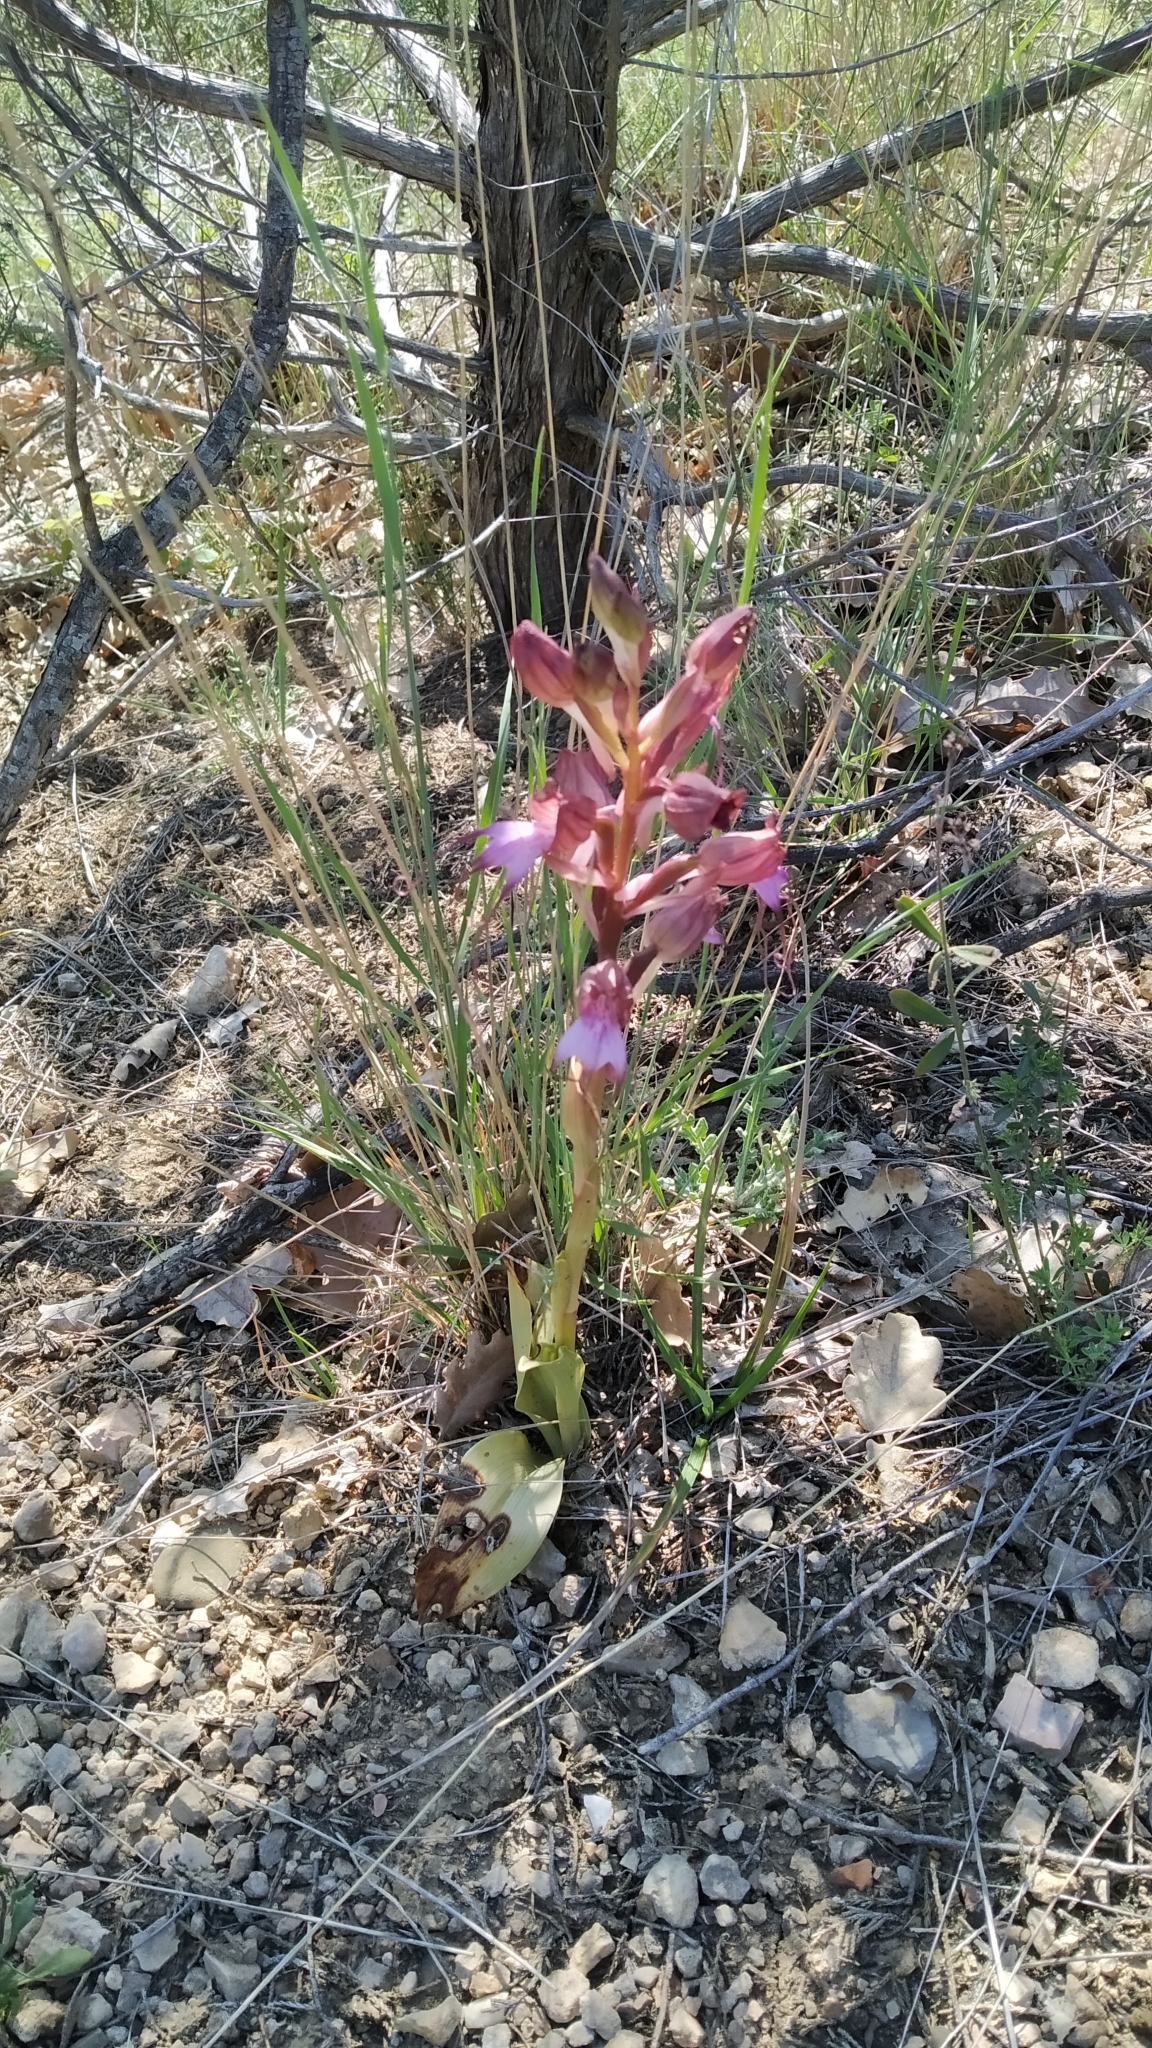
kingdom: Plantae
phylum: Tracheophyta
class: Liliopsida
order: Asparagales
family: Orchidaceae
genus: Himantoglossum
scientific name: Himantoglossum comperianum
